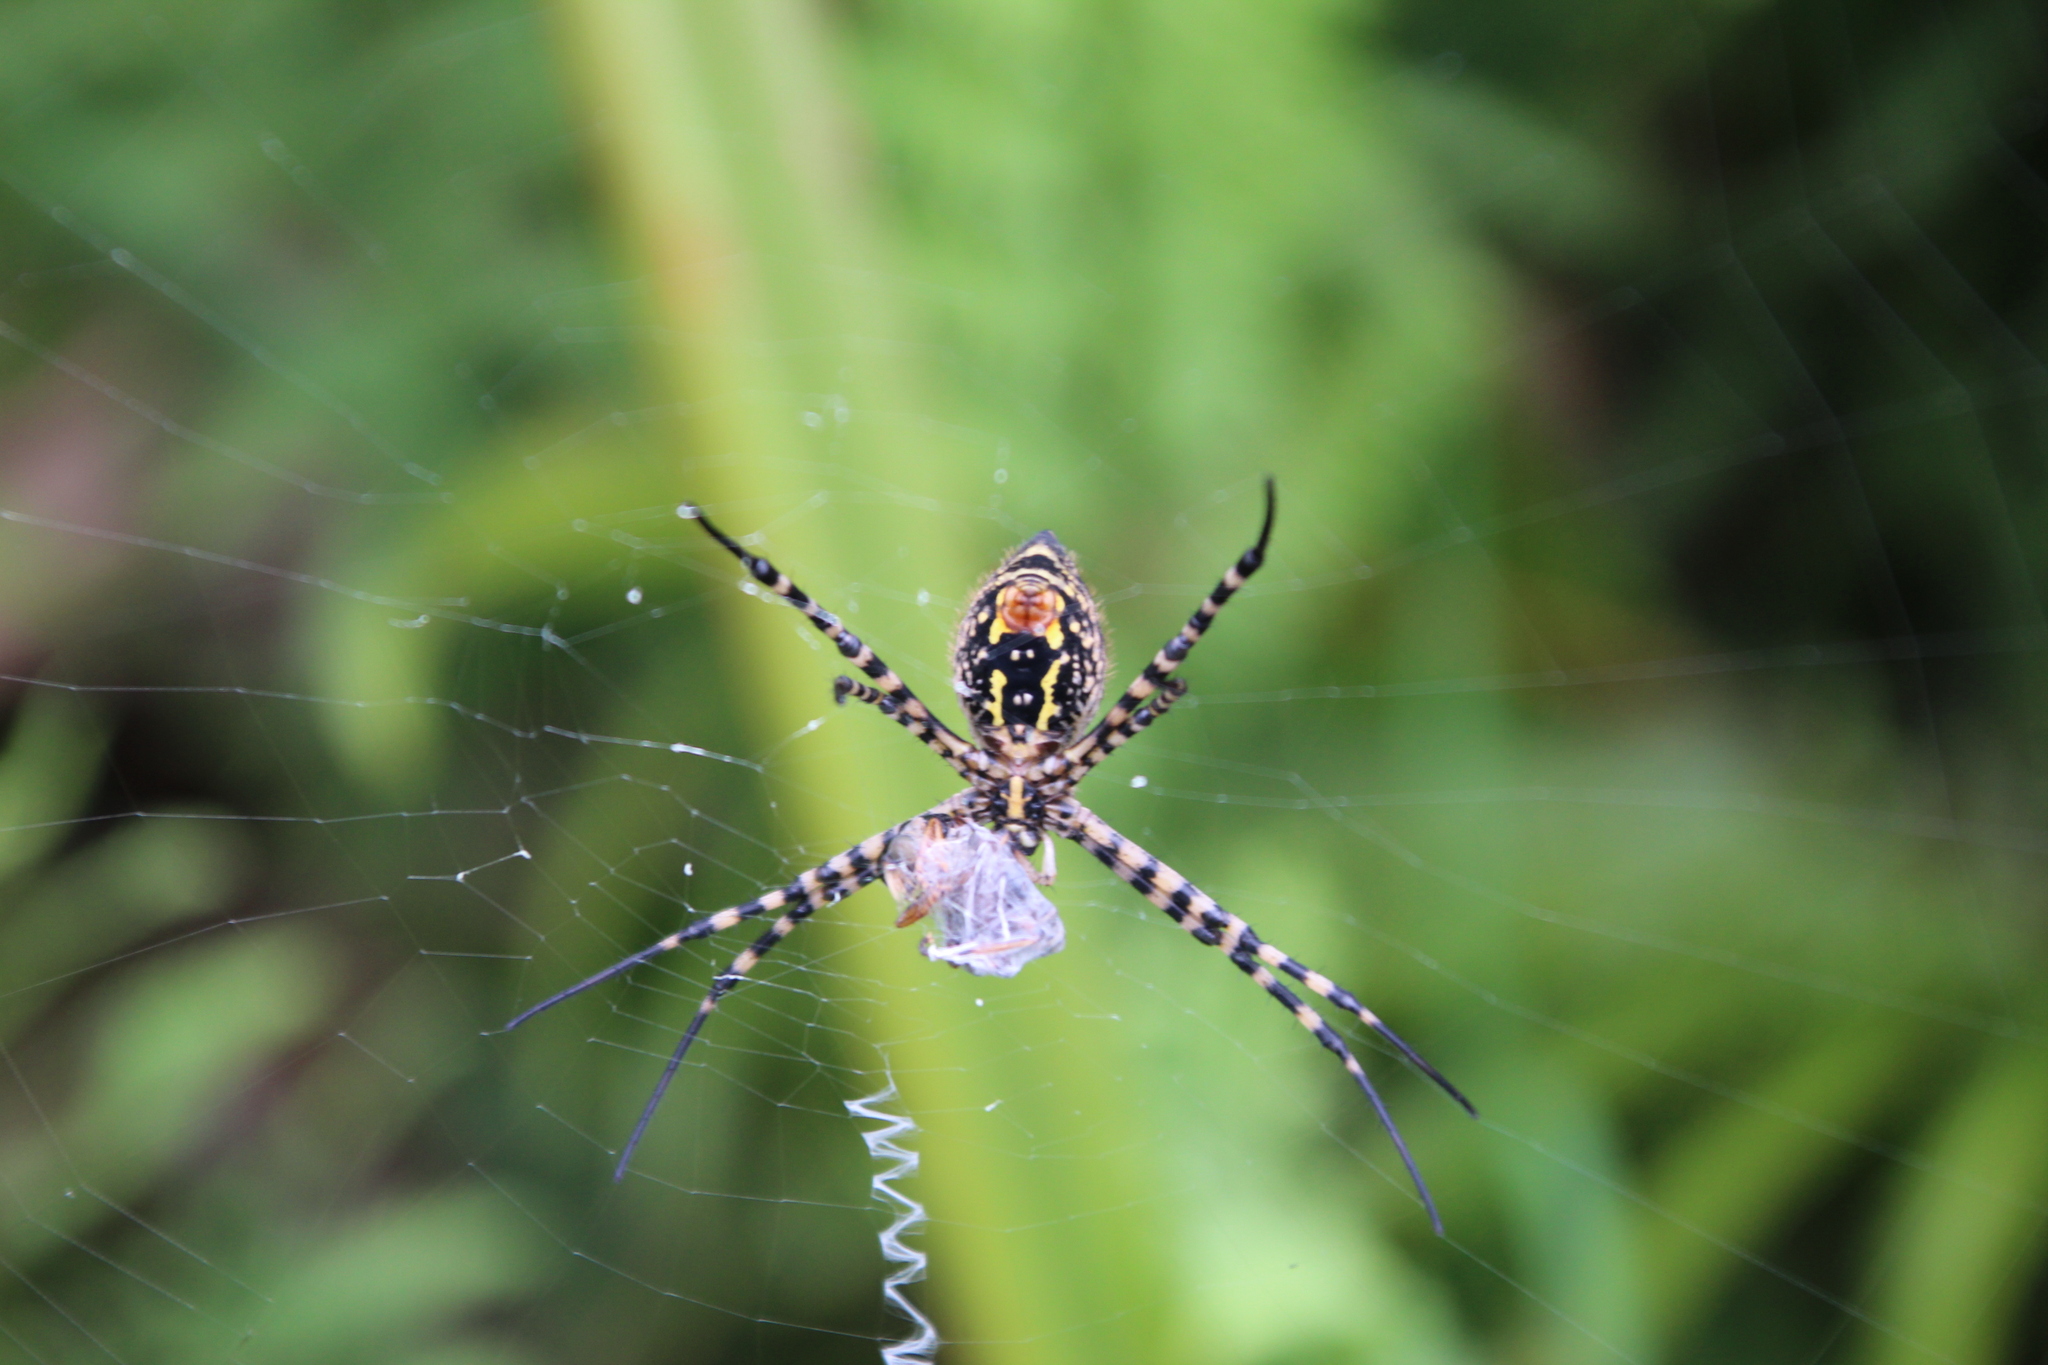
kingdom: Animalia
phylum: Arthropoda
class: Arachnida
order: Araneae
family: Araneidae
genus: Argiope
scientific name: Argiope trifasciata
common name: Banded garden spider
